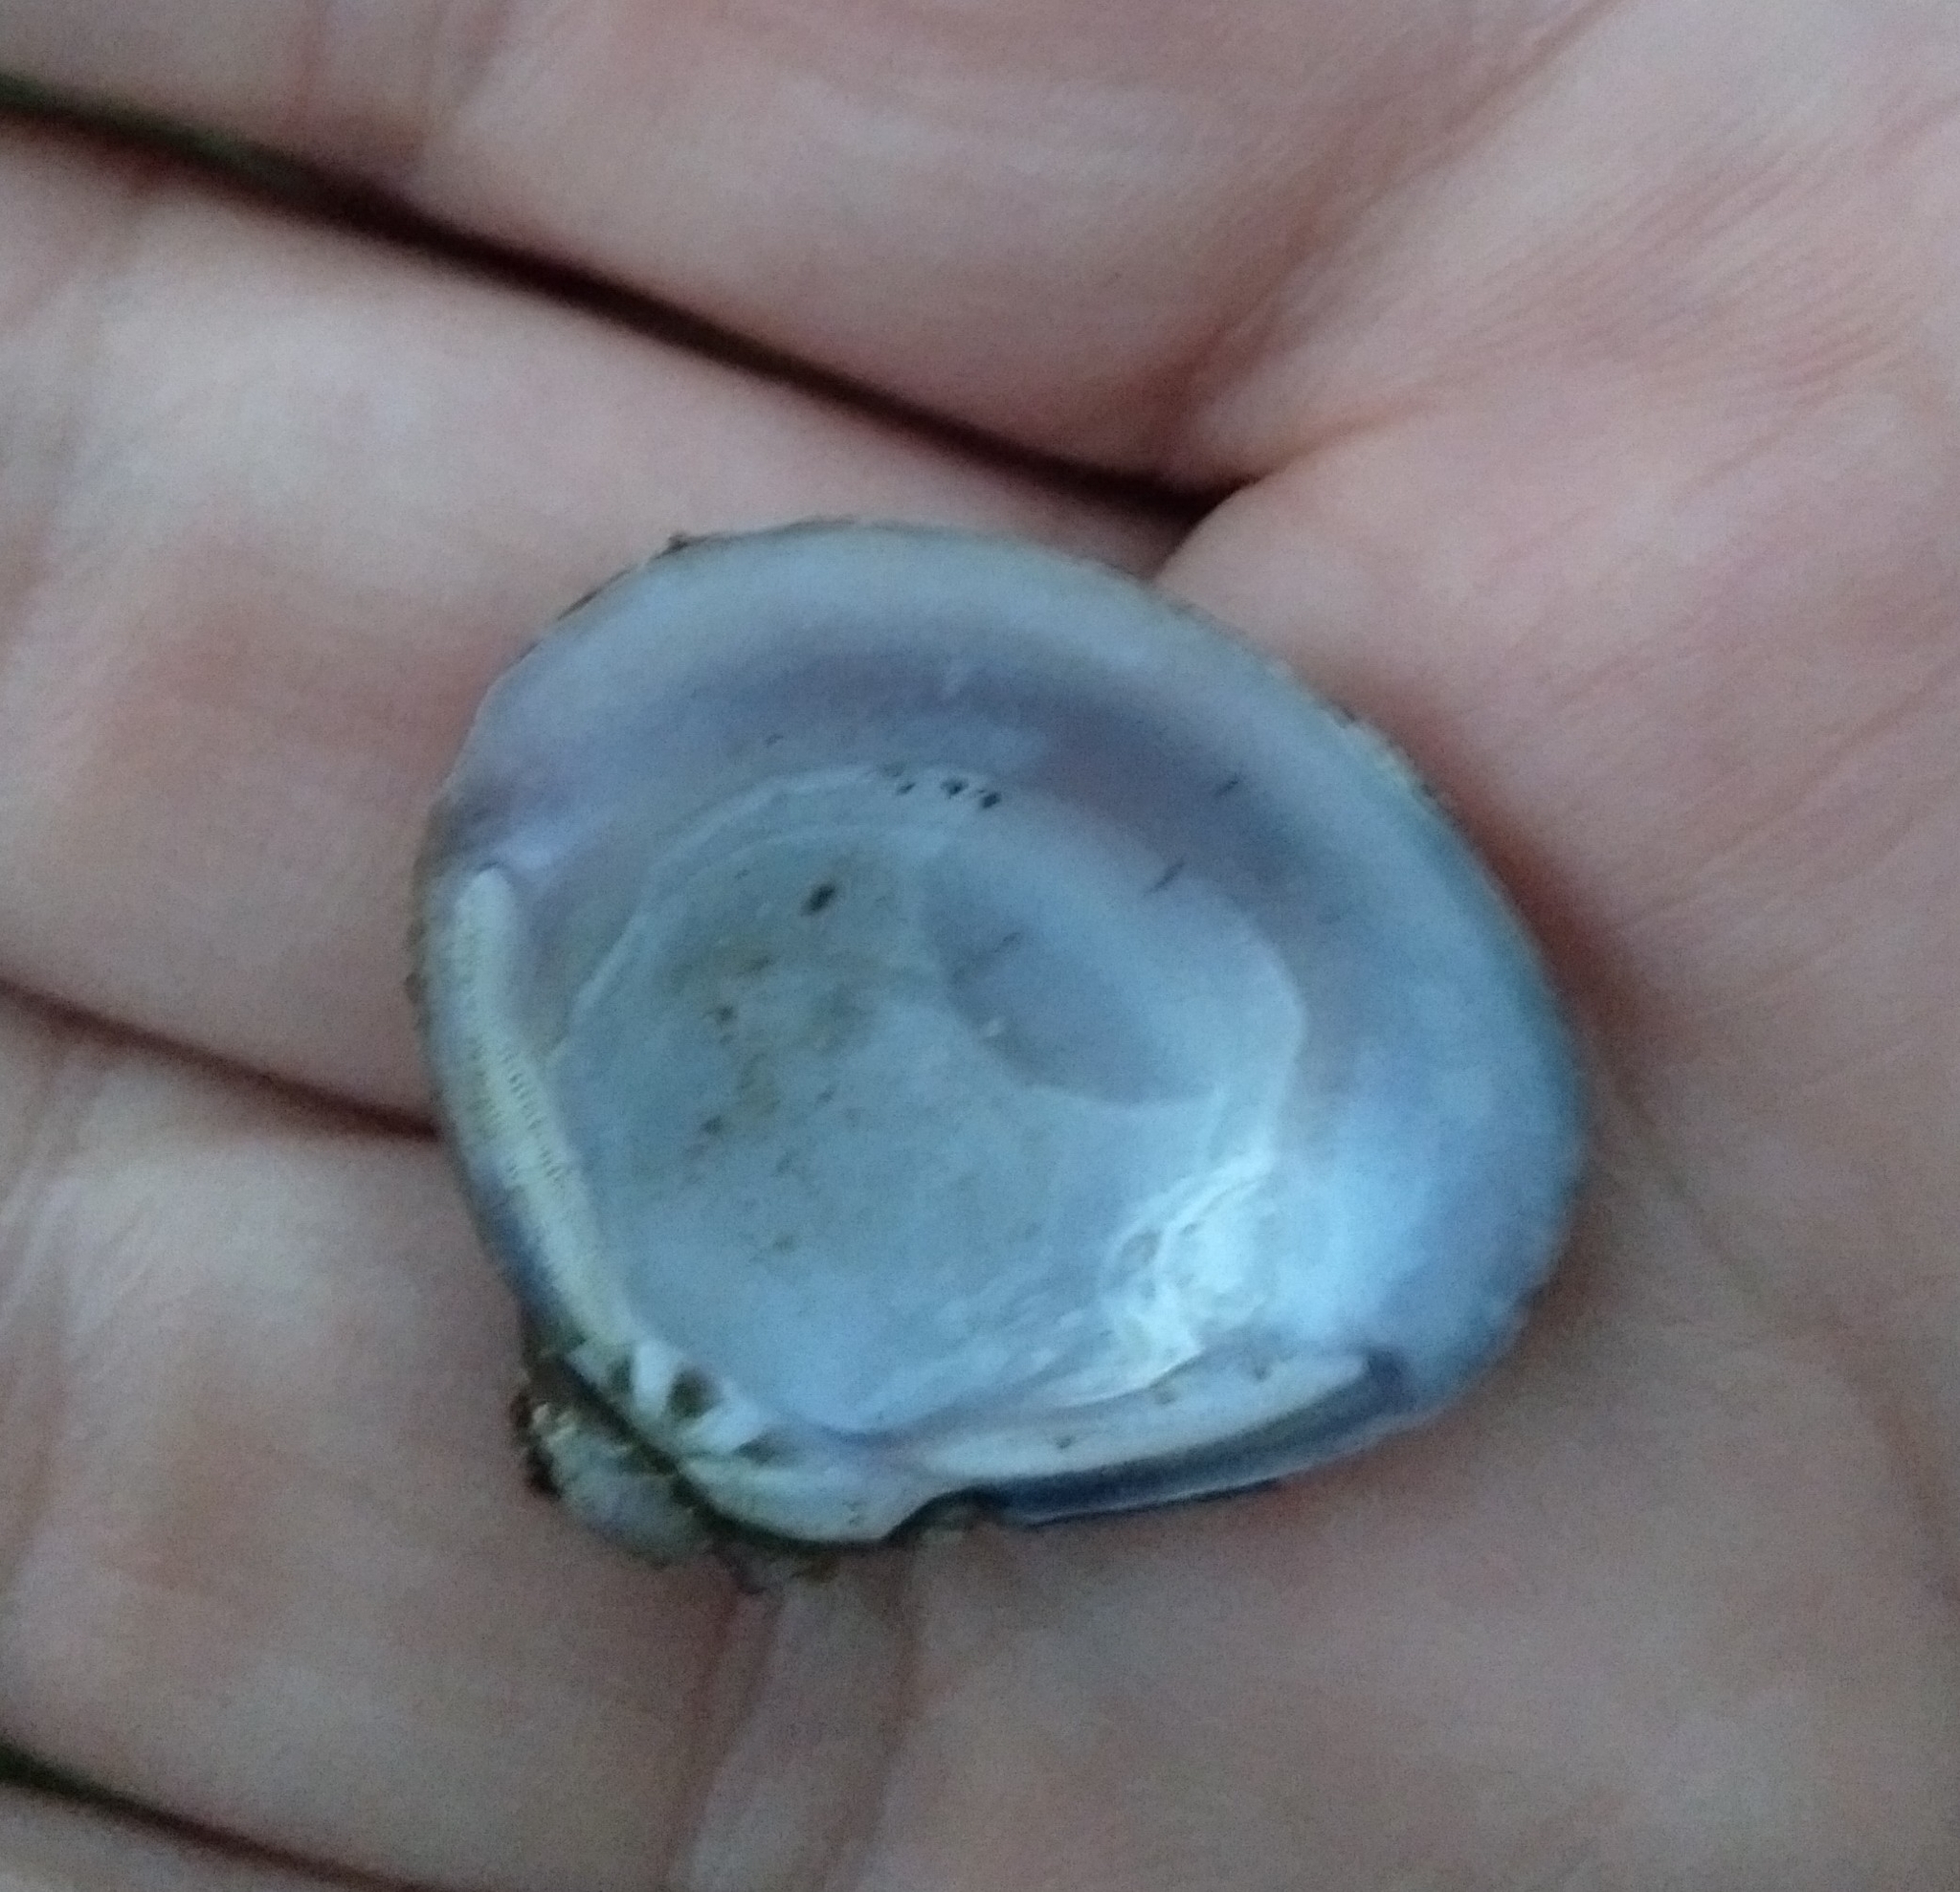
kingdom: Animalia
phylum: Mollusca
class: Bivalvia
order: Venerida
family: Cyrenidae
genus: Corbicula
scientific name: Corbicula fluminea
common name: Asian clam
